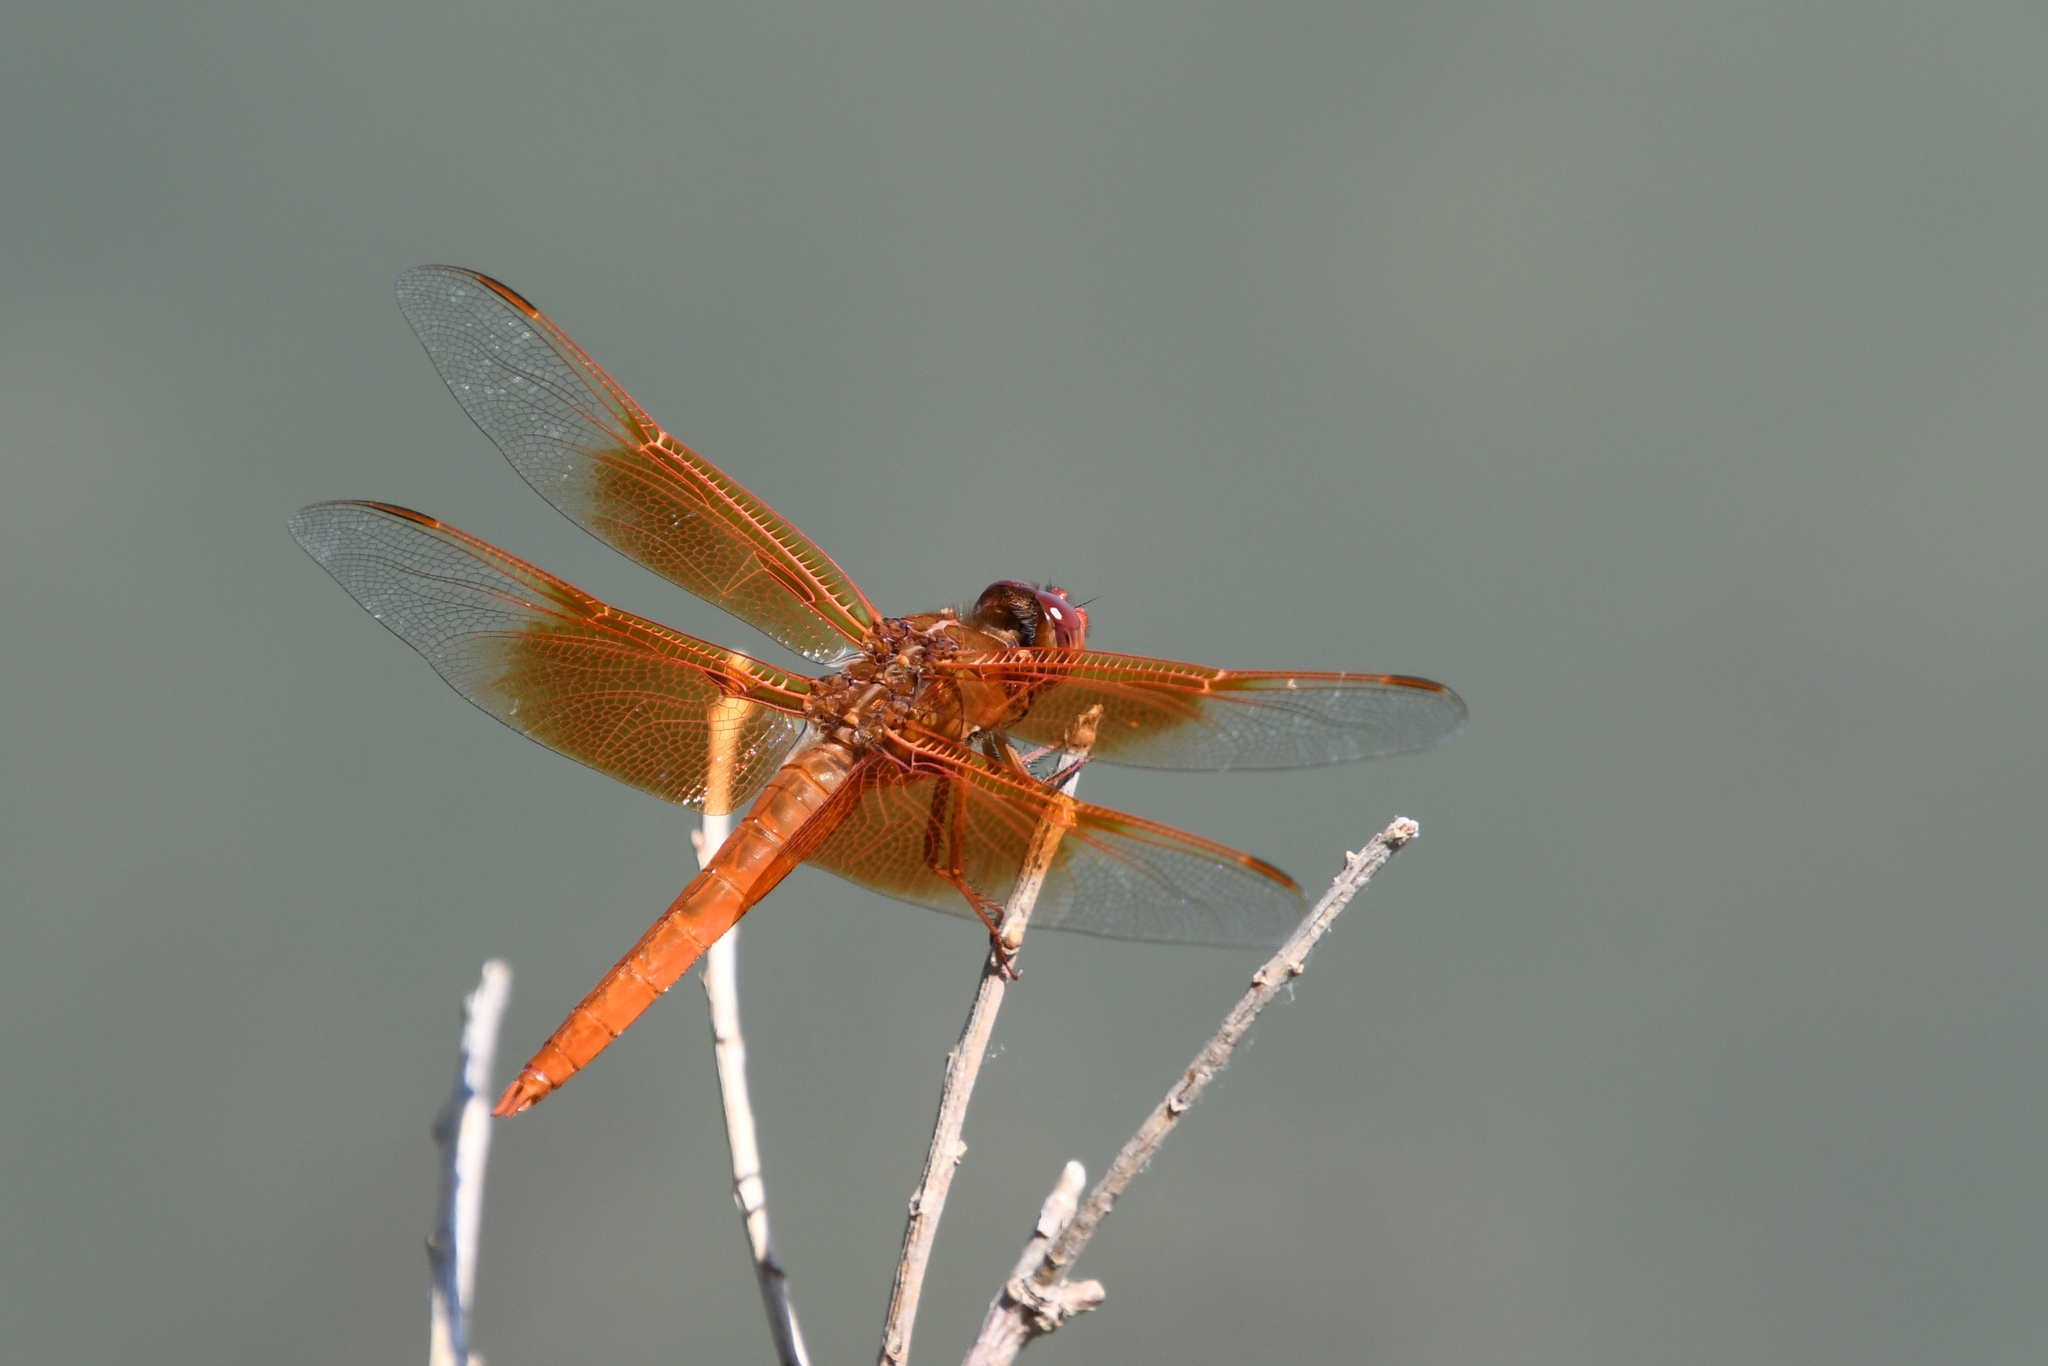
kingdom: Animalia
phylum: Arthropoda
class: Insecta
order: Odonata
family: Libellulidae
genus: Libellula
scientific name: Libellula saturata
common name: Flame skimmer
